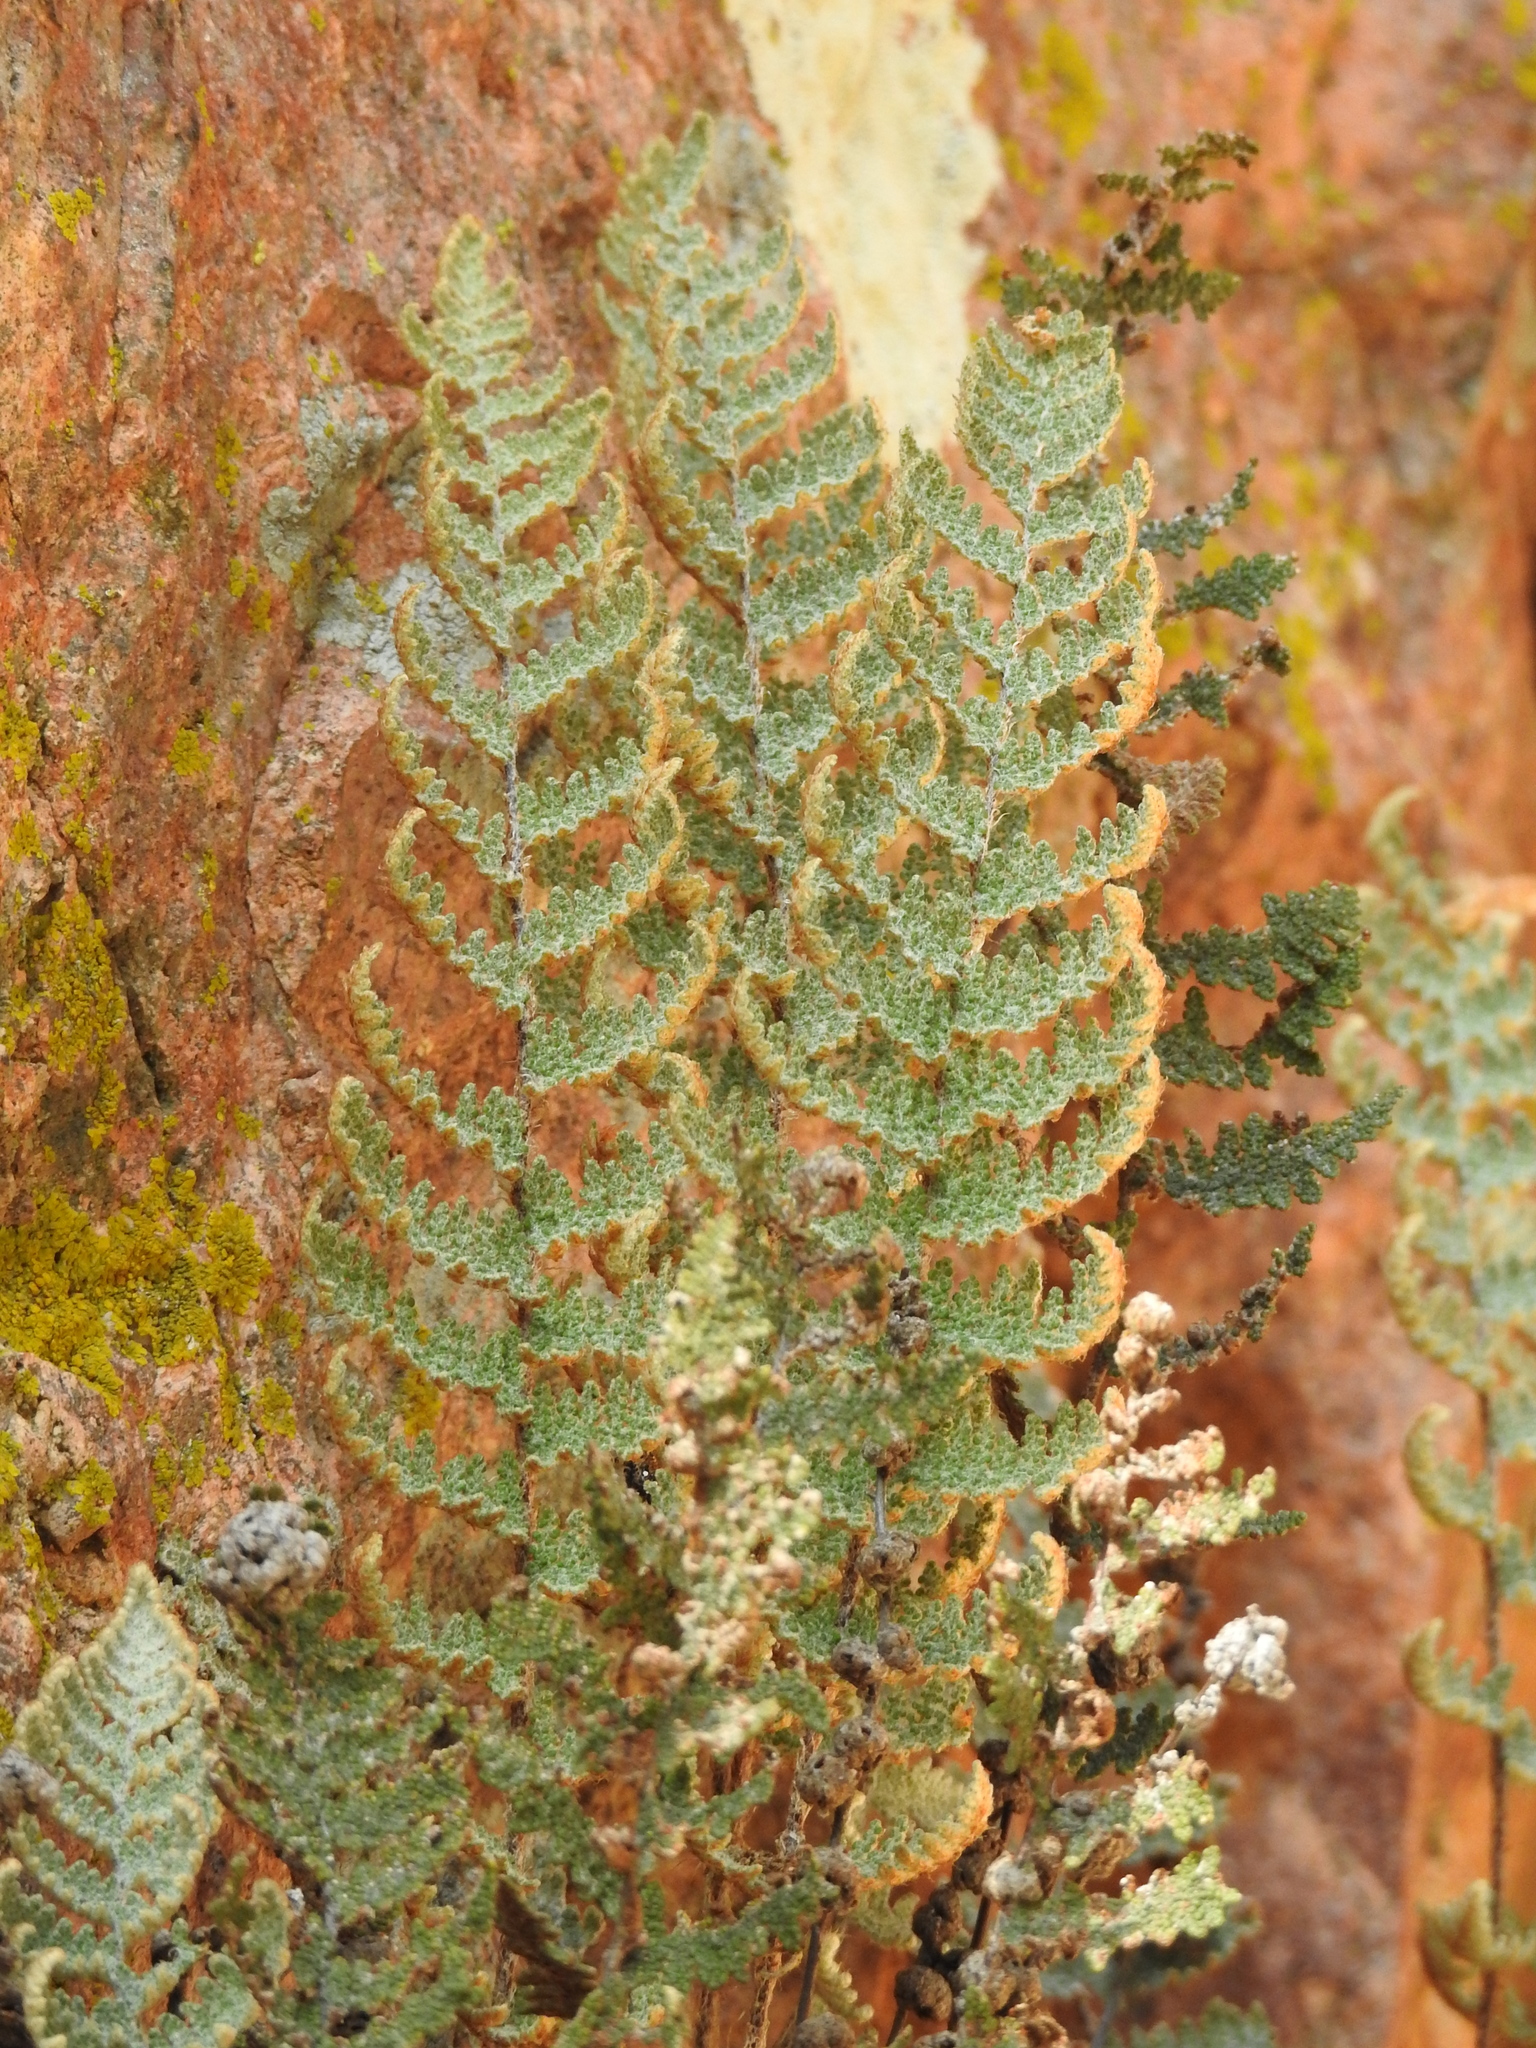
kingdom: Plantae
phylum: Tracheophyta
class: Polypodiopsida
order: Polypodiales
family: Pteridaceae
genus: Myriopteris
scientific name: Myriopteris lindheimeri
